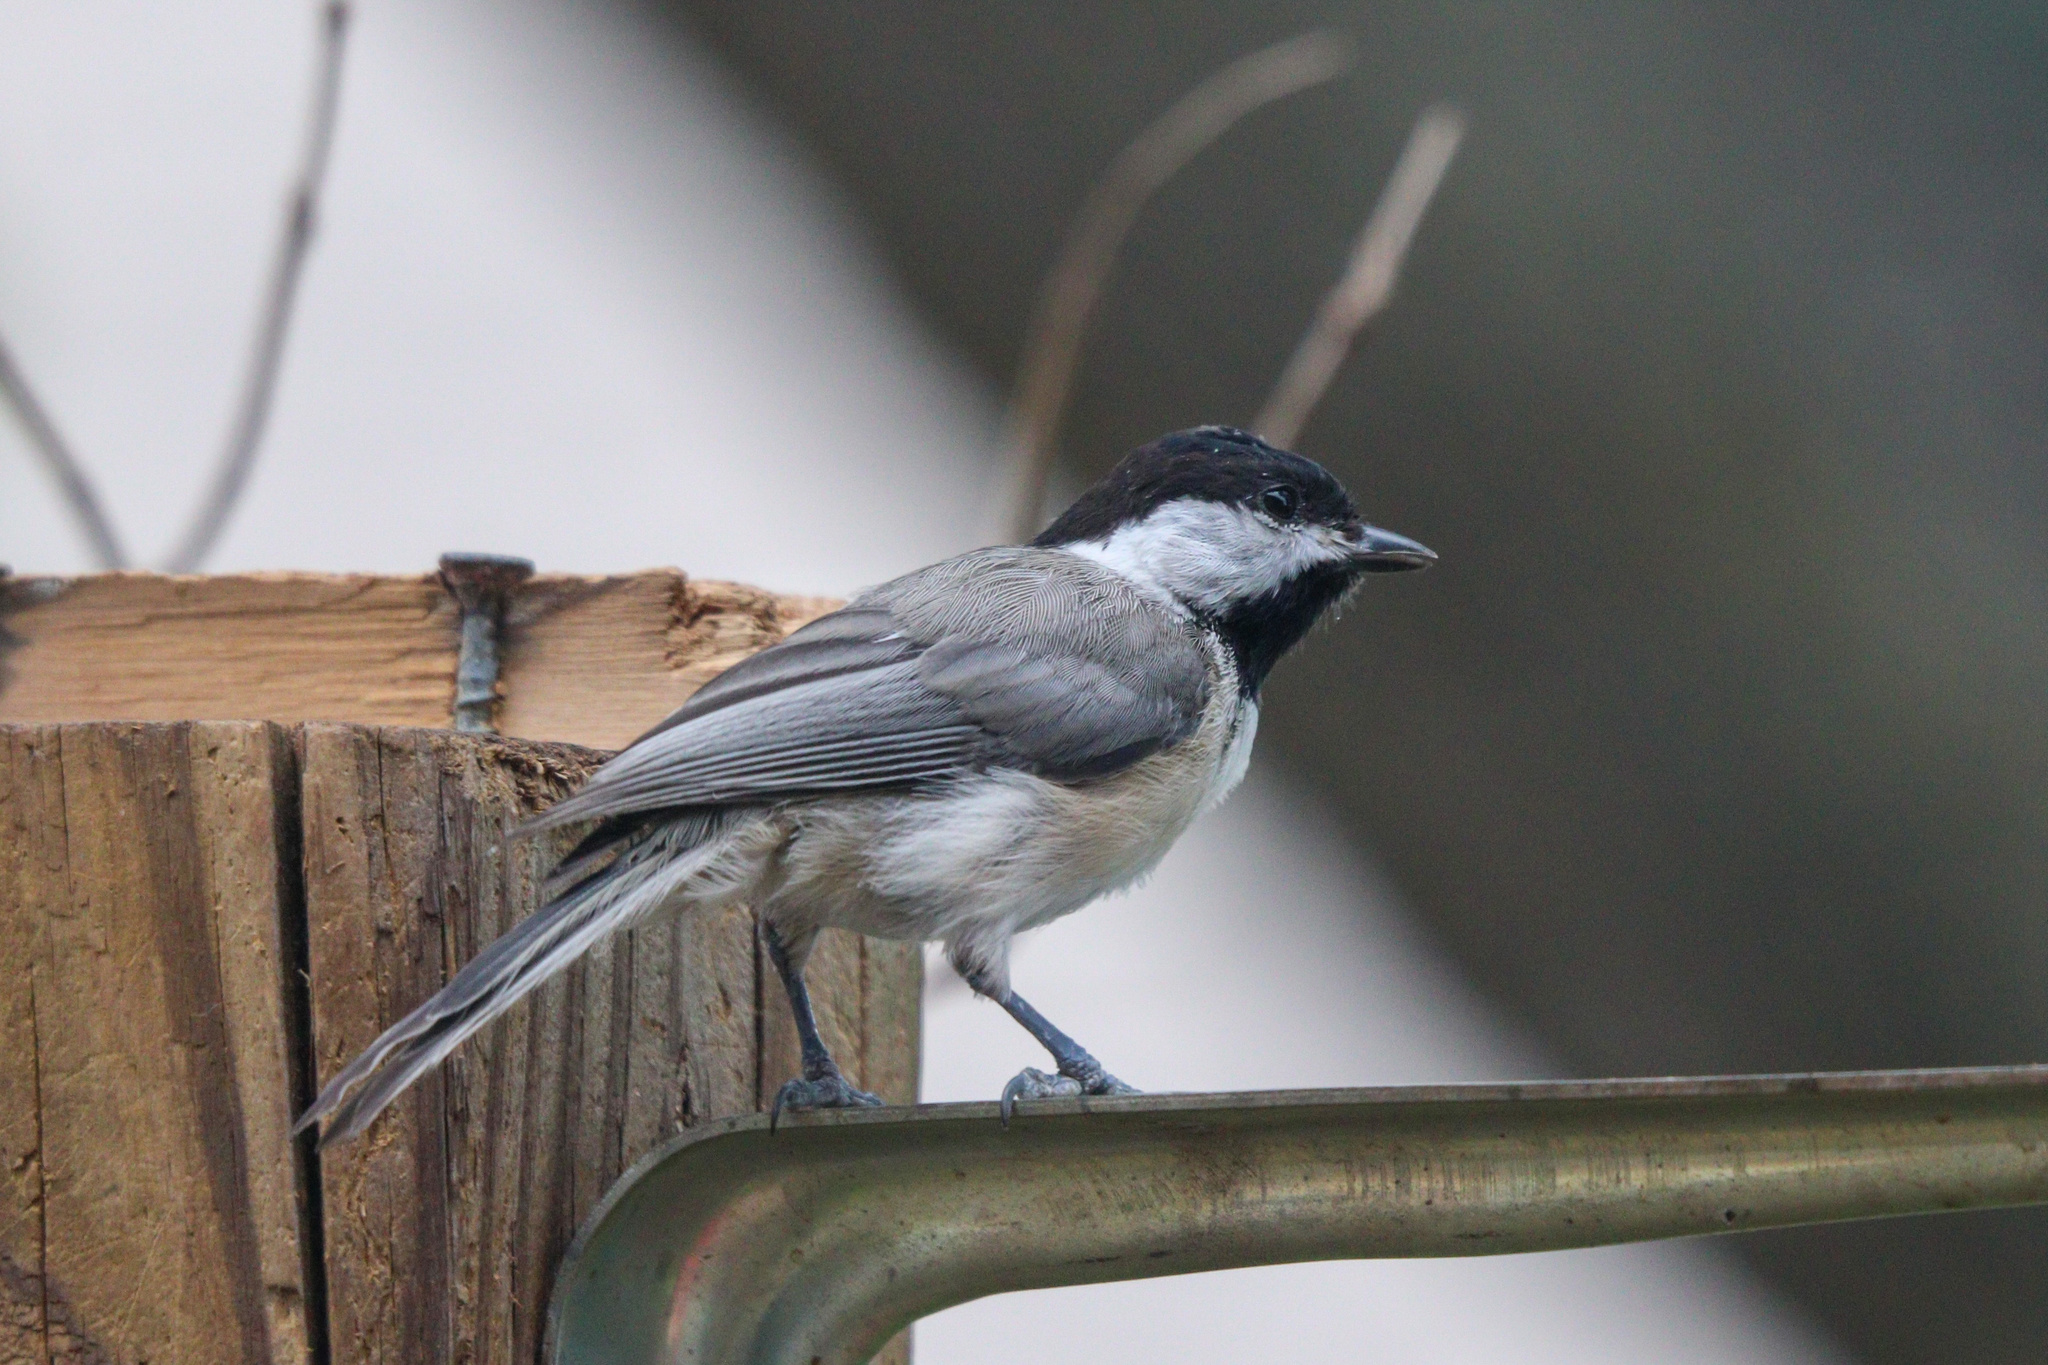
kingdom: Animalia
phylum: Chordata
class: Aves
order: Passeriformes
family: Paridae
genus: Poecile
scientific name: Poecile carolinensis
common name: Carolina chickadee
